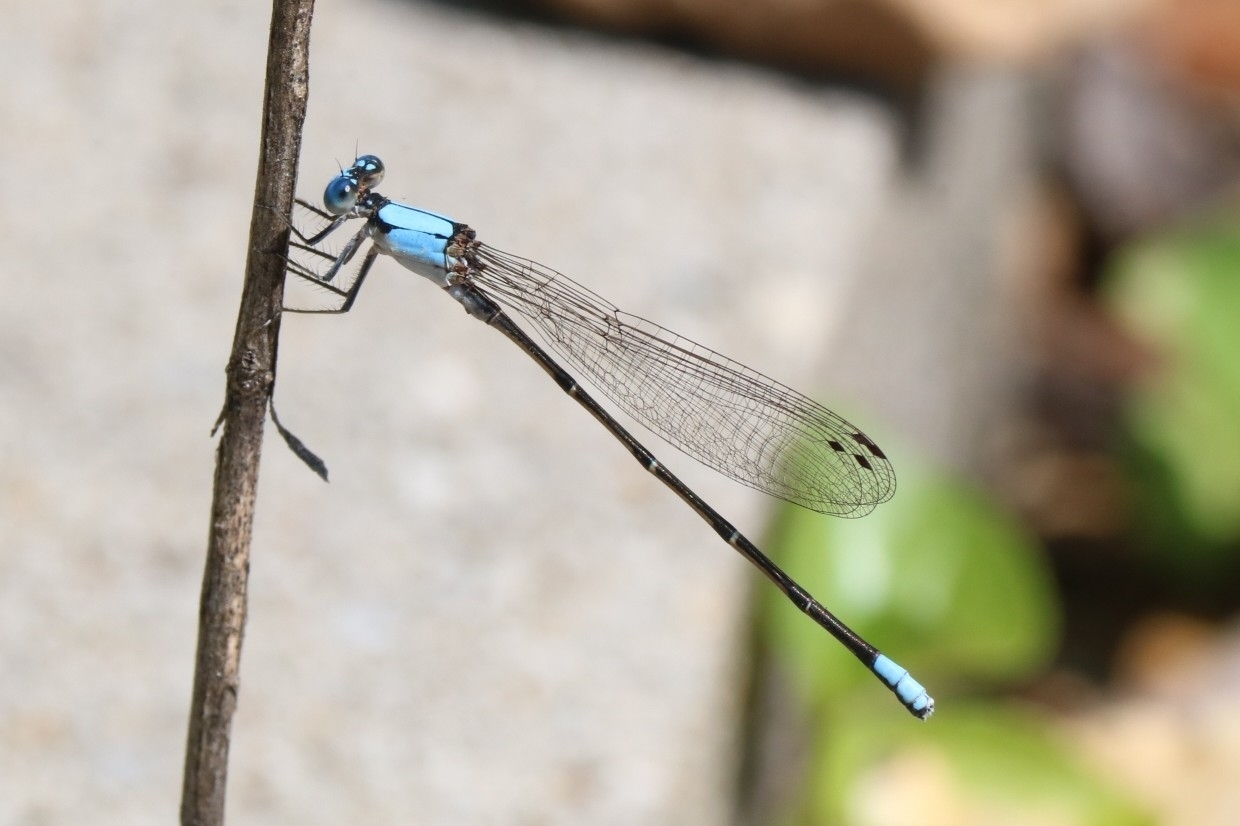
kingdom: Animalia
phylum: Arthropoda
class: Insecta
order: Odonata
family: Coenagrionidae
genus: Argia
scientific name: Argia apicalis
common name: Blue-fronted dancer
